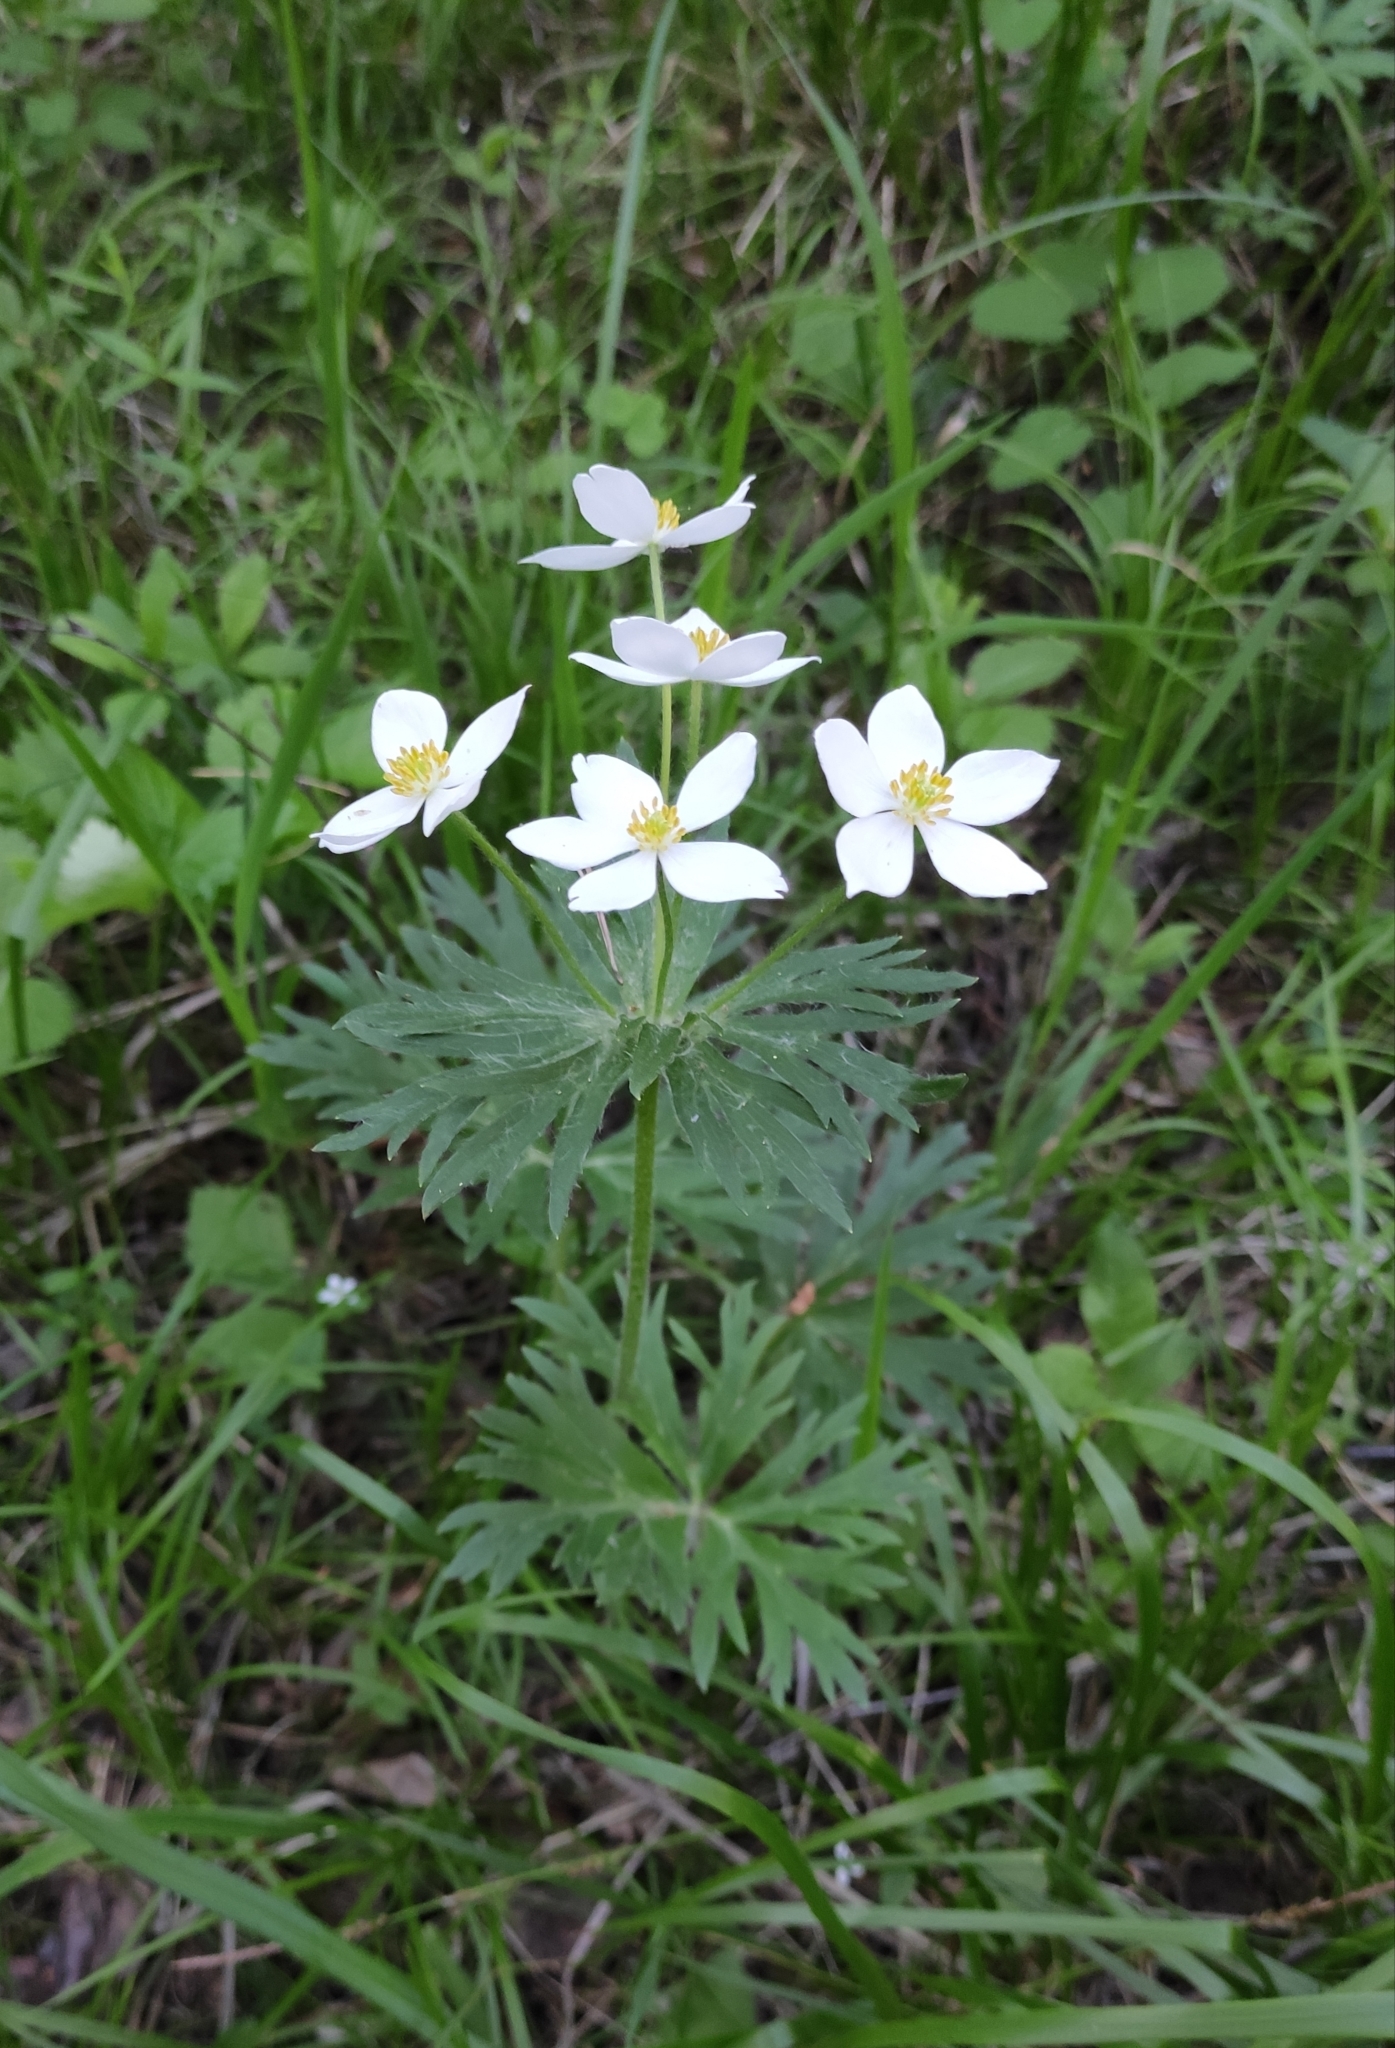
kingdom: Plantae
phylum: Tracheophyta
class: Magnoliopsida
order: Ranunculales
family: Ranunculaceae
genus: Anemonastrum
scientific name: Anemonastrum narcissiflorum
